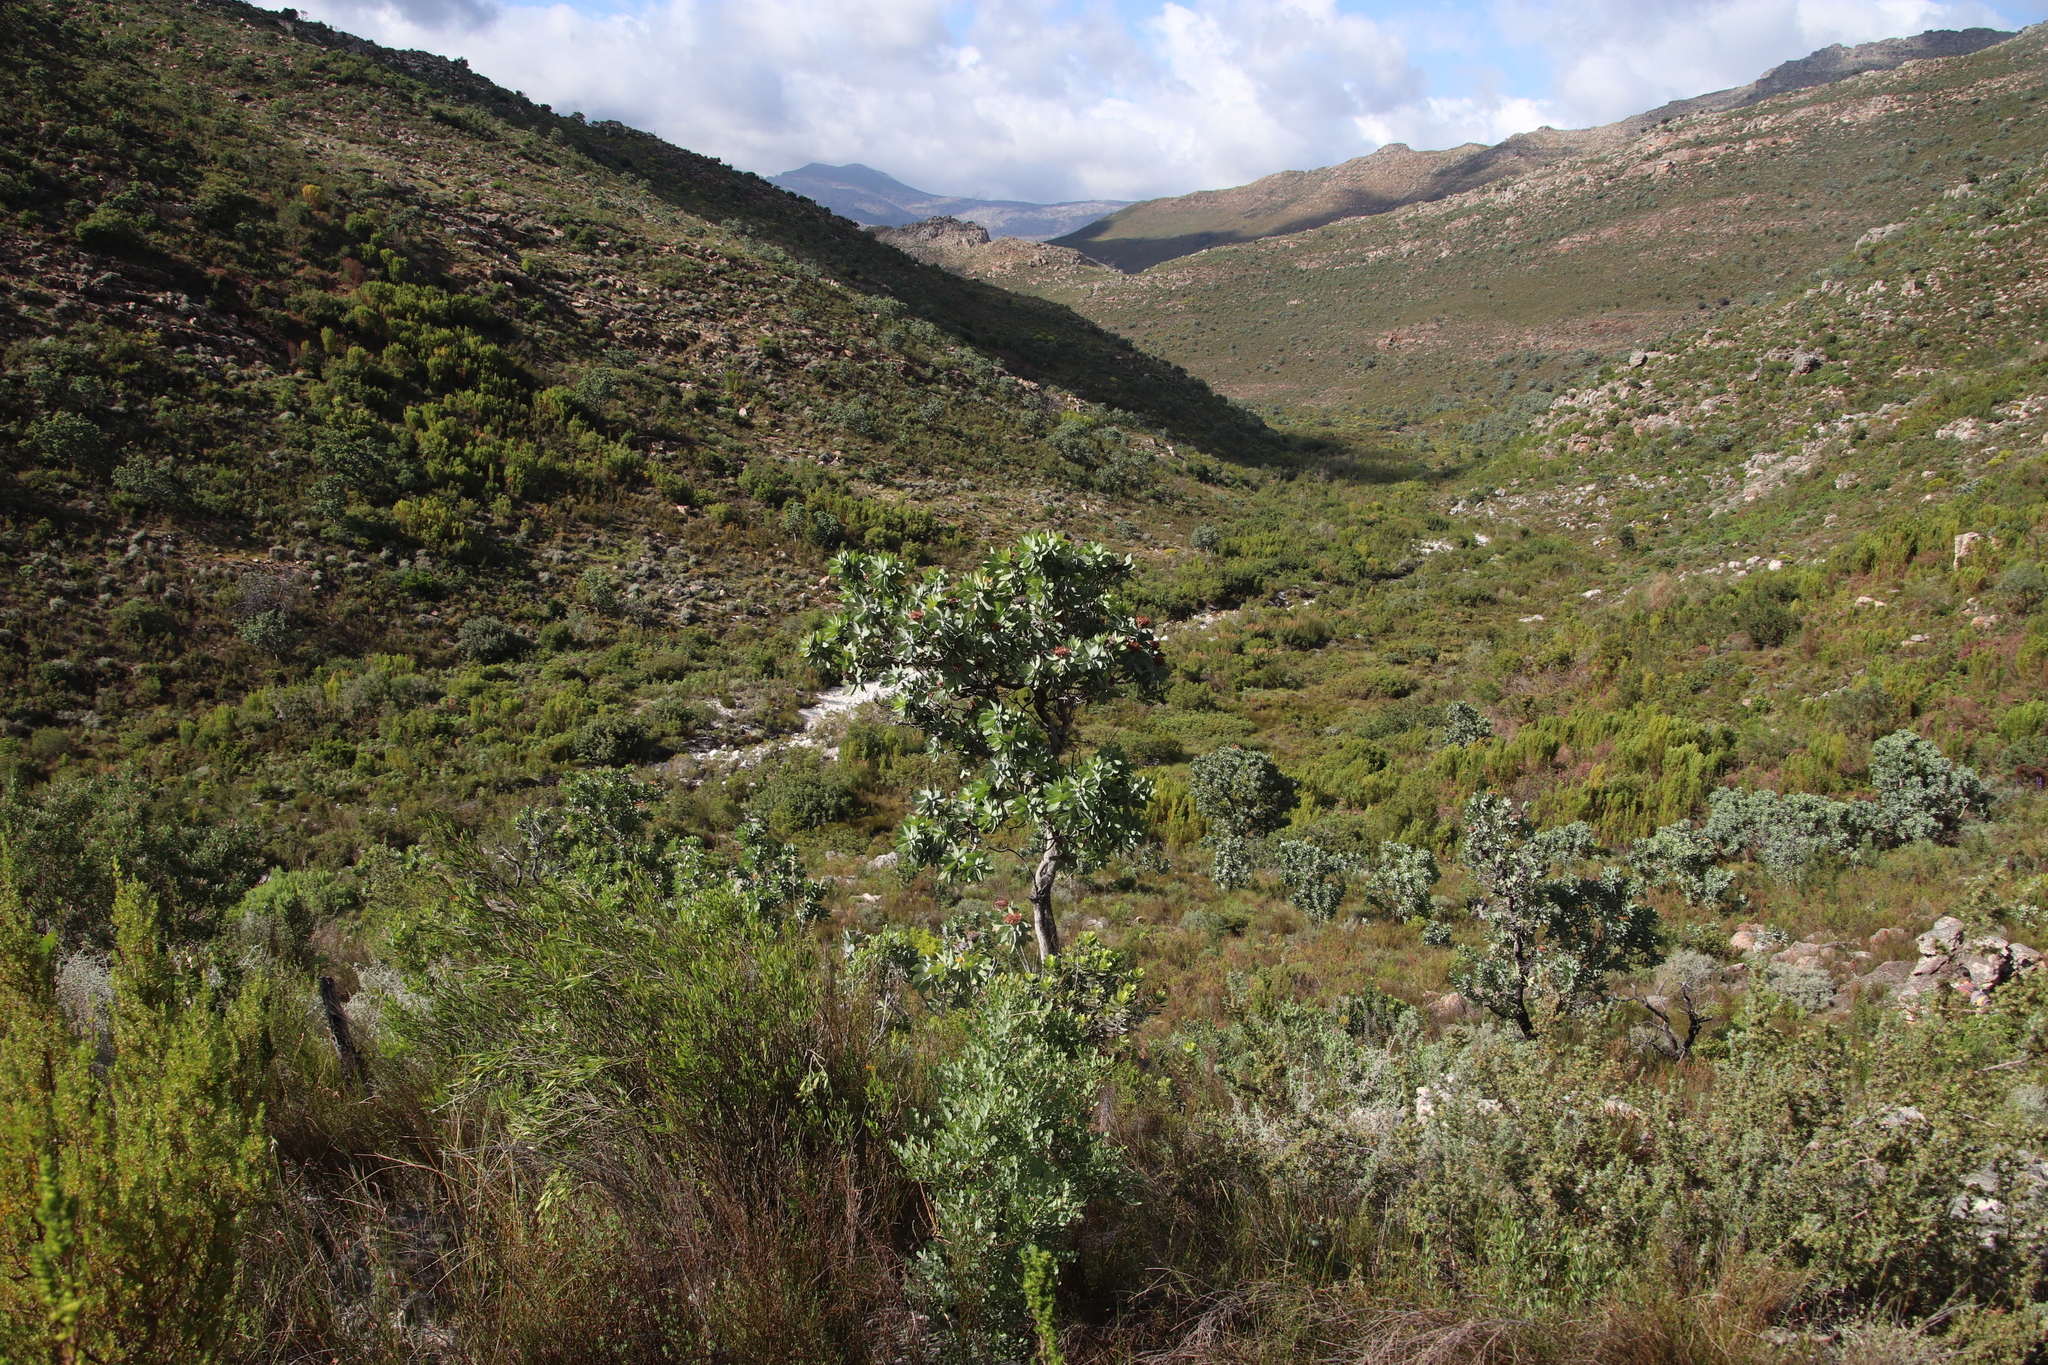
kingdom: Plantae
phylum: Tracheophyta
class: Magnoliopsida
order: Proteales
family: Proteaceae
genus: Protea
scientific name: Protea nitida
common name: Tree protea
